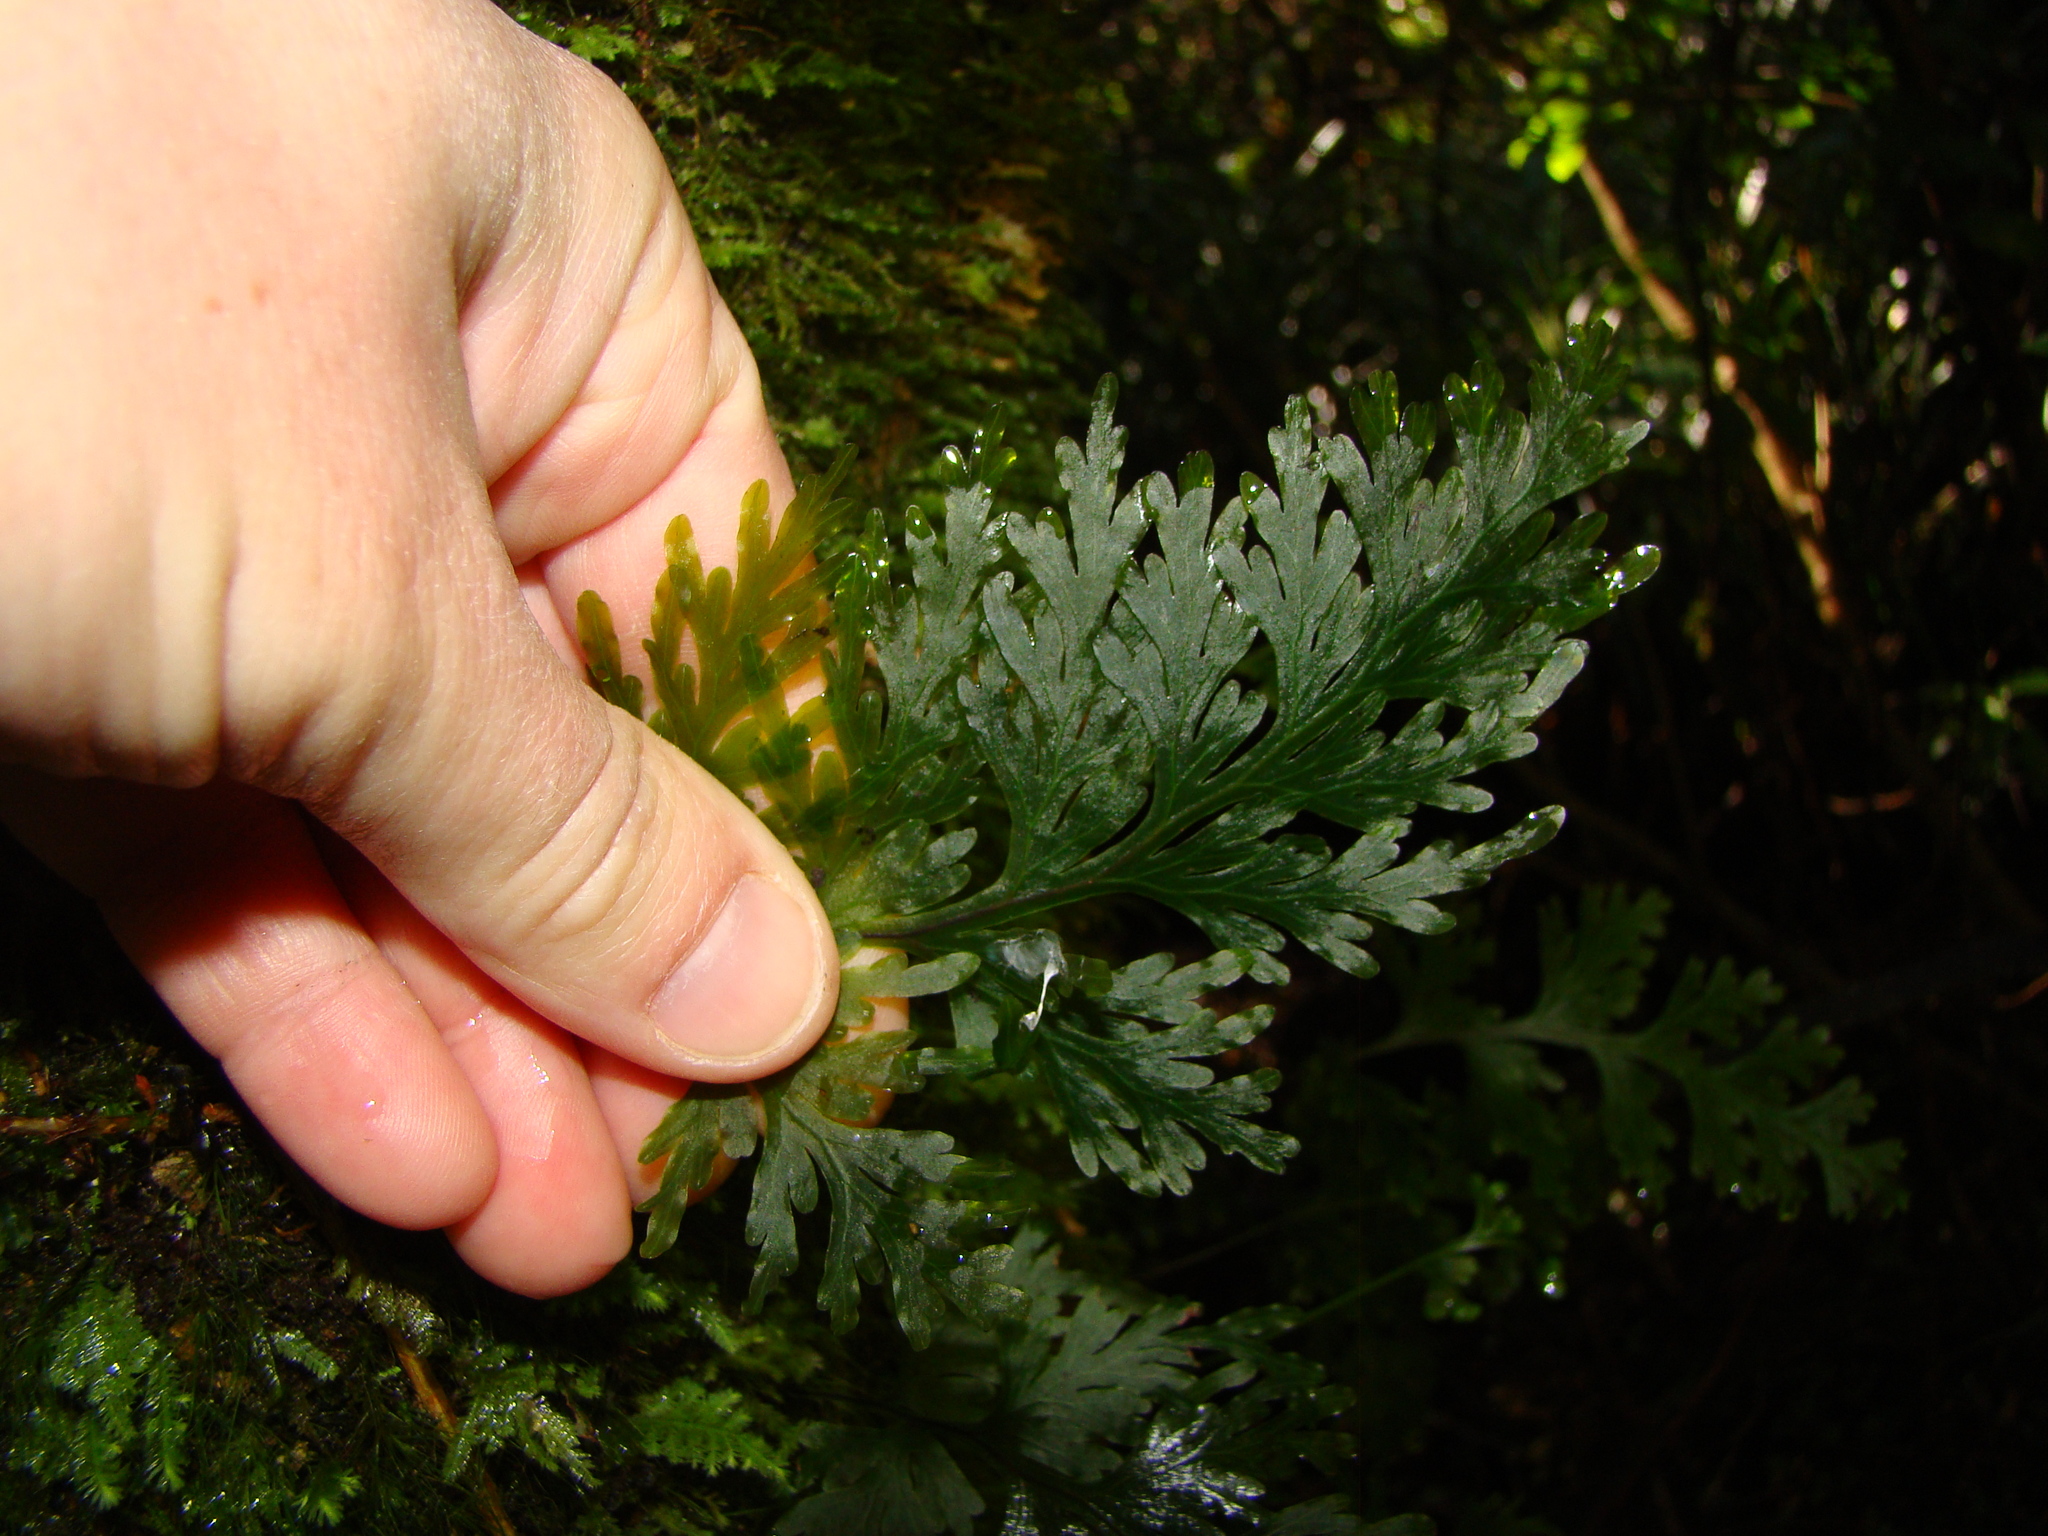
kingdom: Plantae
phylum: Tracheophyta
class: Polypodiopsida
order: Hymenophyllales
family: Hymenophyllaceae
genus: Hymenophyllum
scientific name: Hymenophyllum dilatatum
